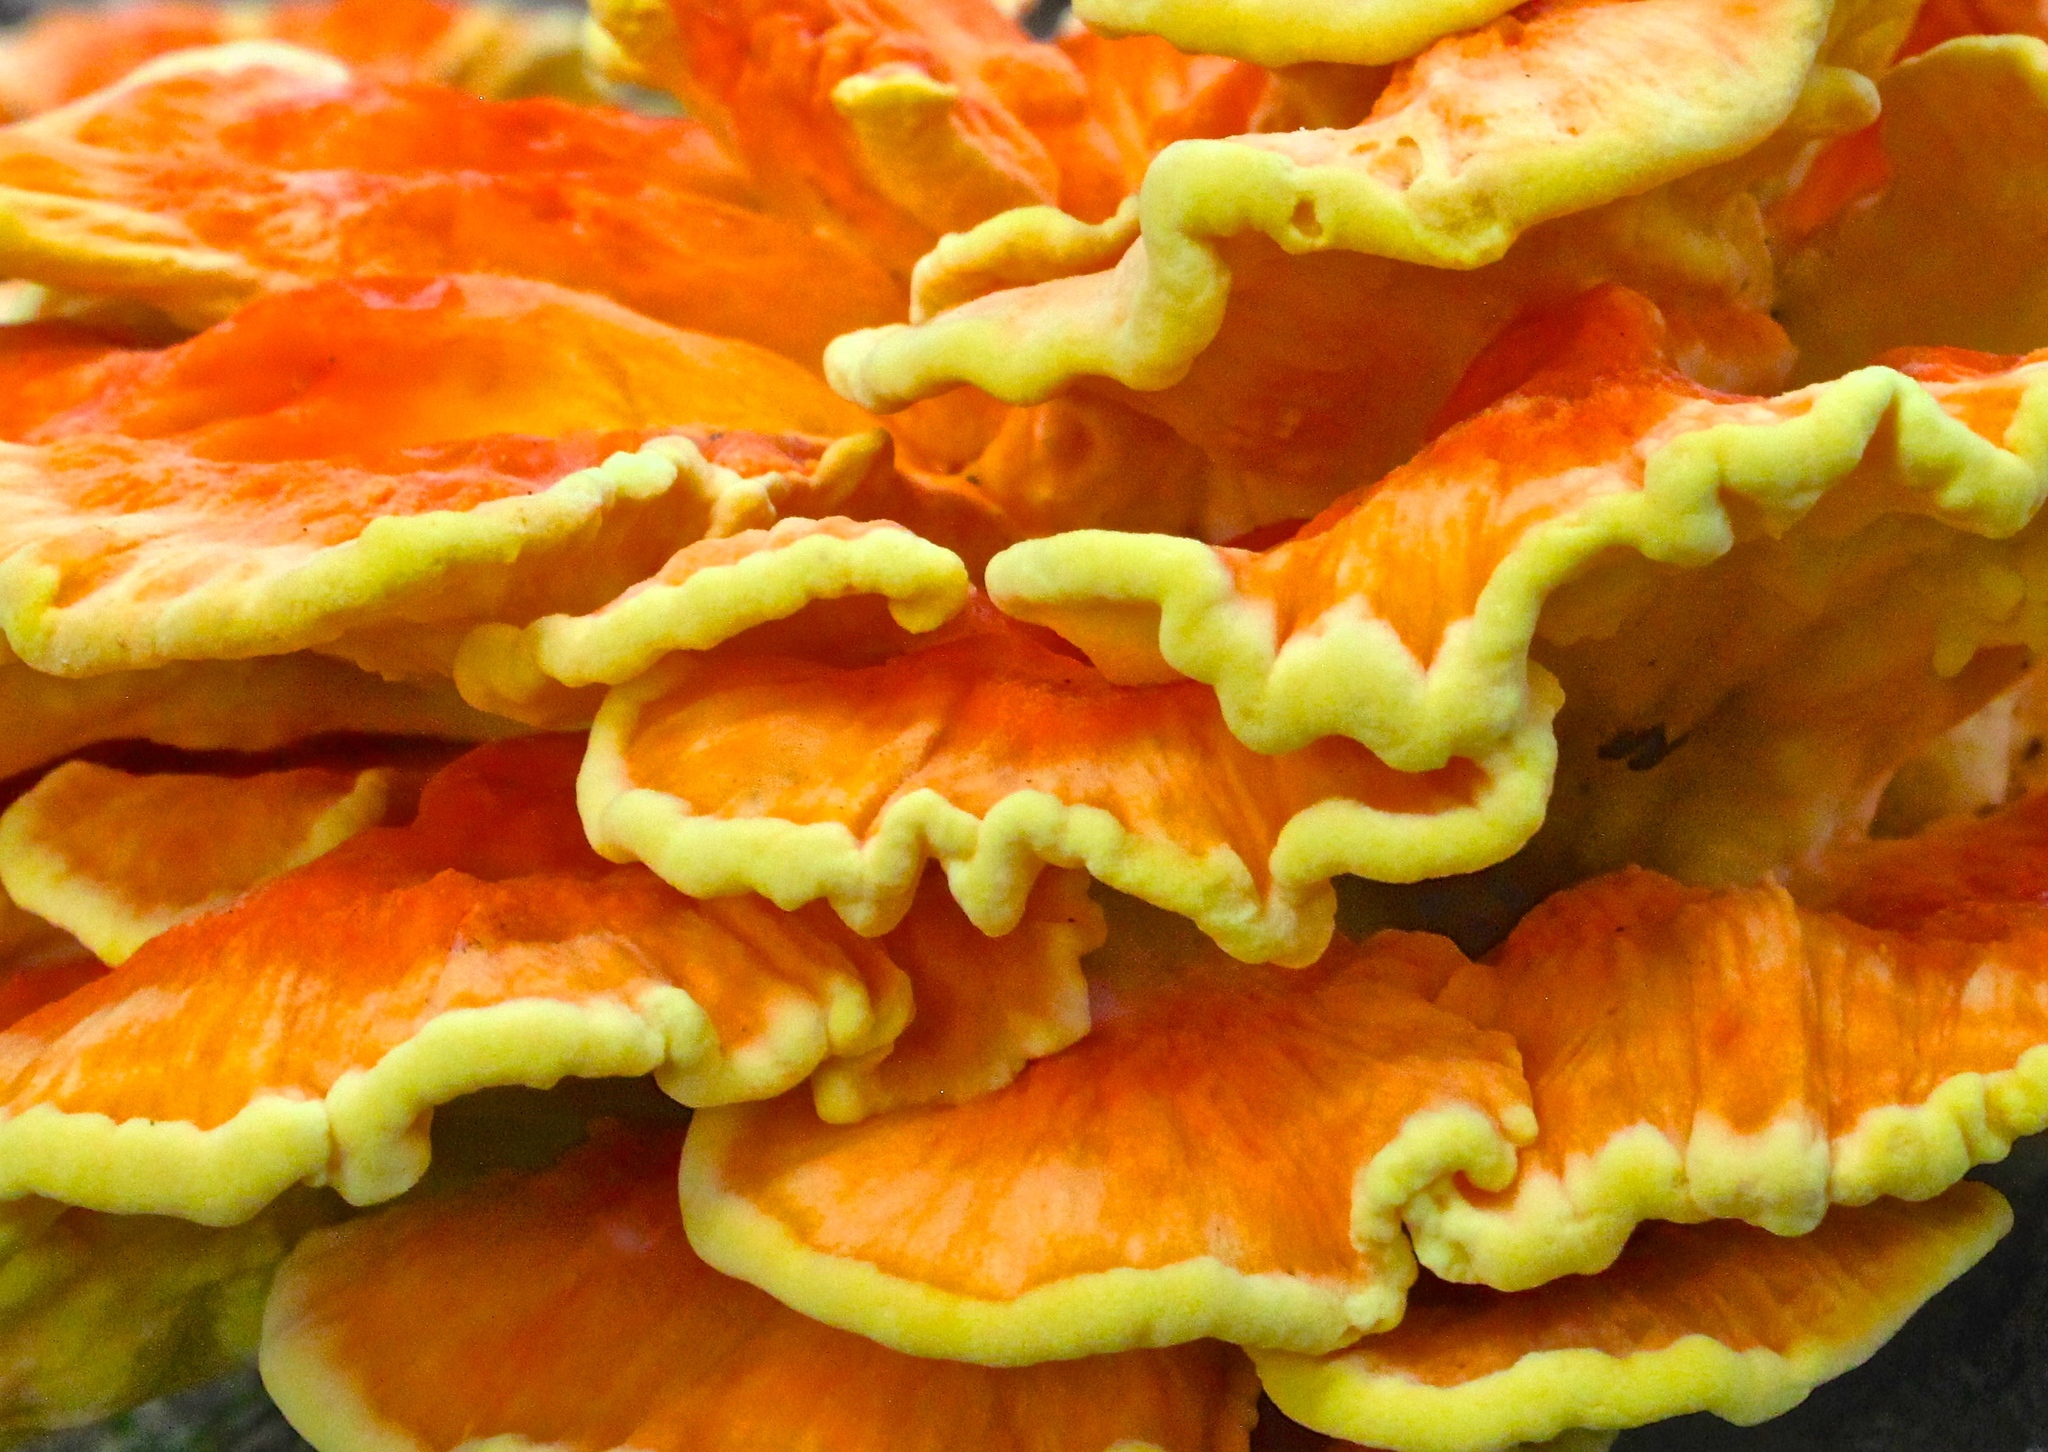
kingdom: Fungi
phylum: Basidiomycota
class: Agaricomycetes
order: Polyporales
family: Laetiporaceae
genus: Laetiporus
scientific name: Laetiporus sulphureus
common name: Chicken of the woods
